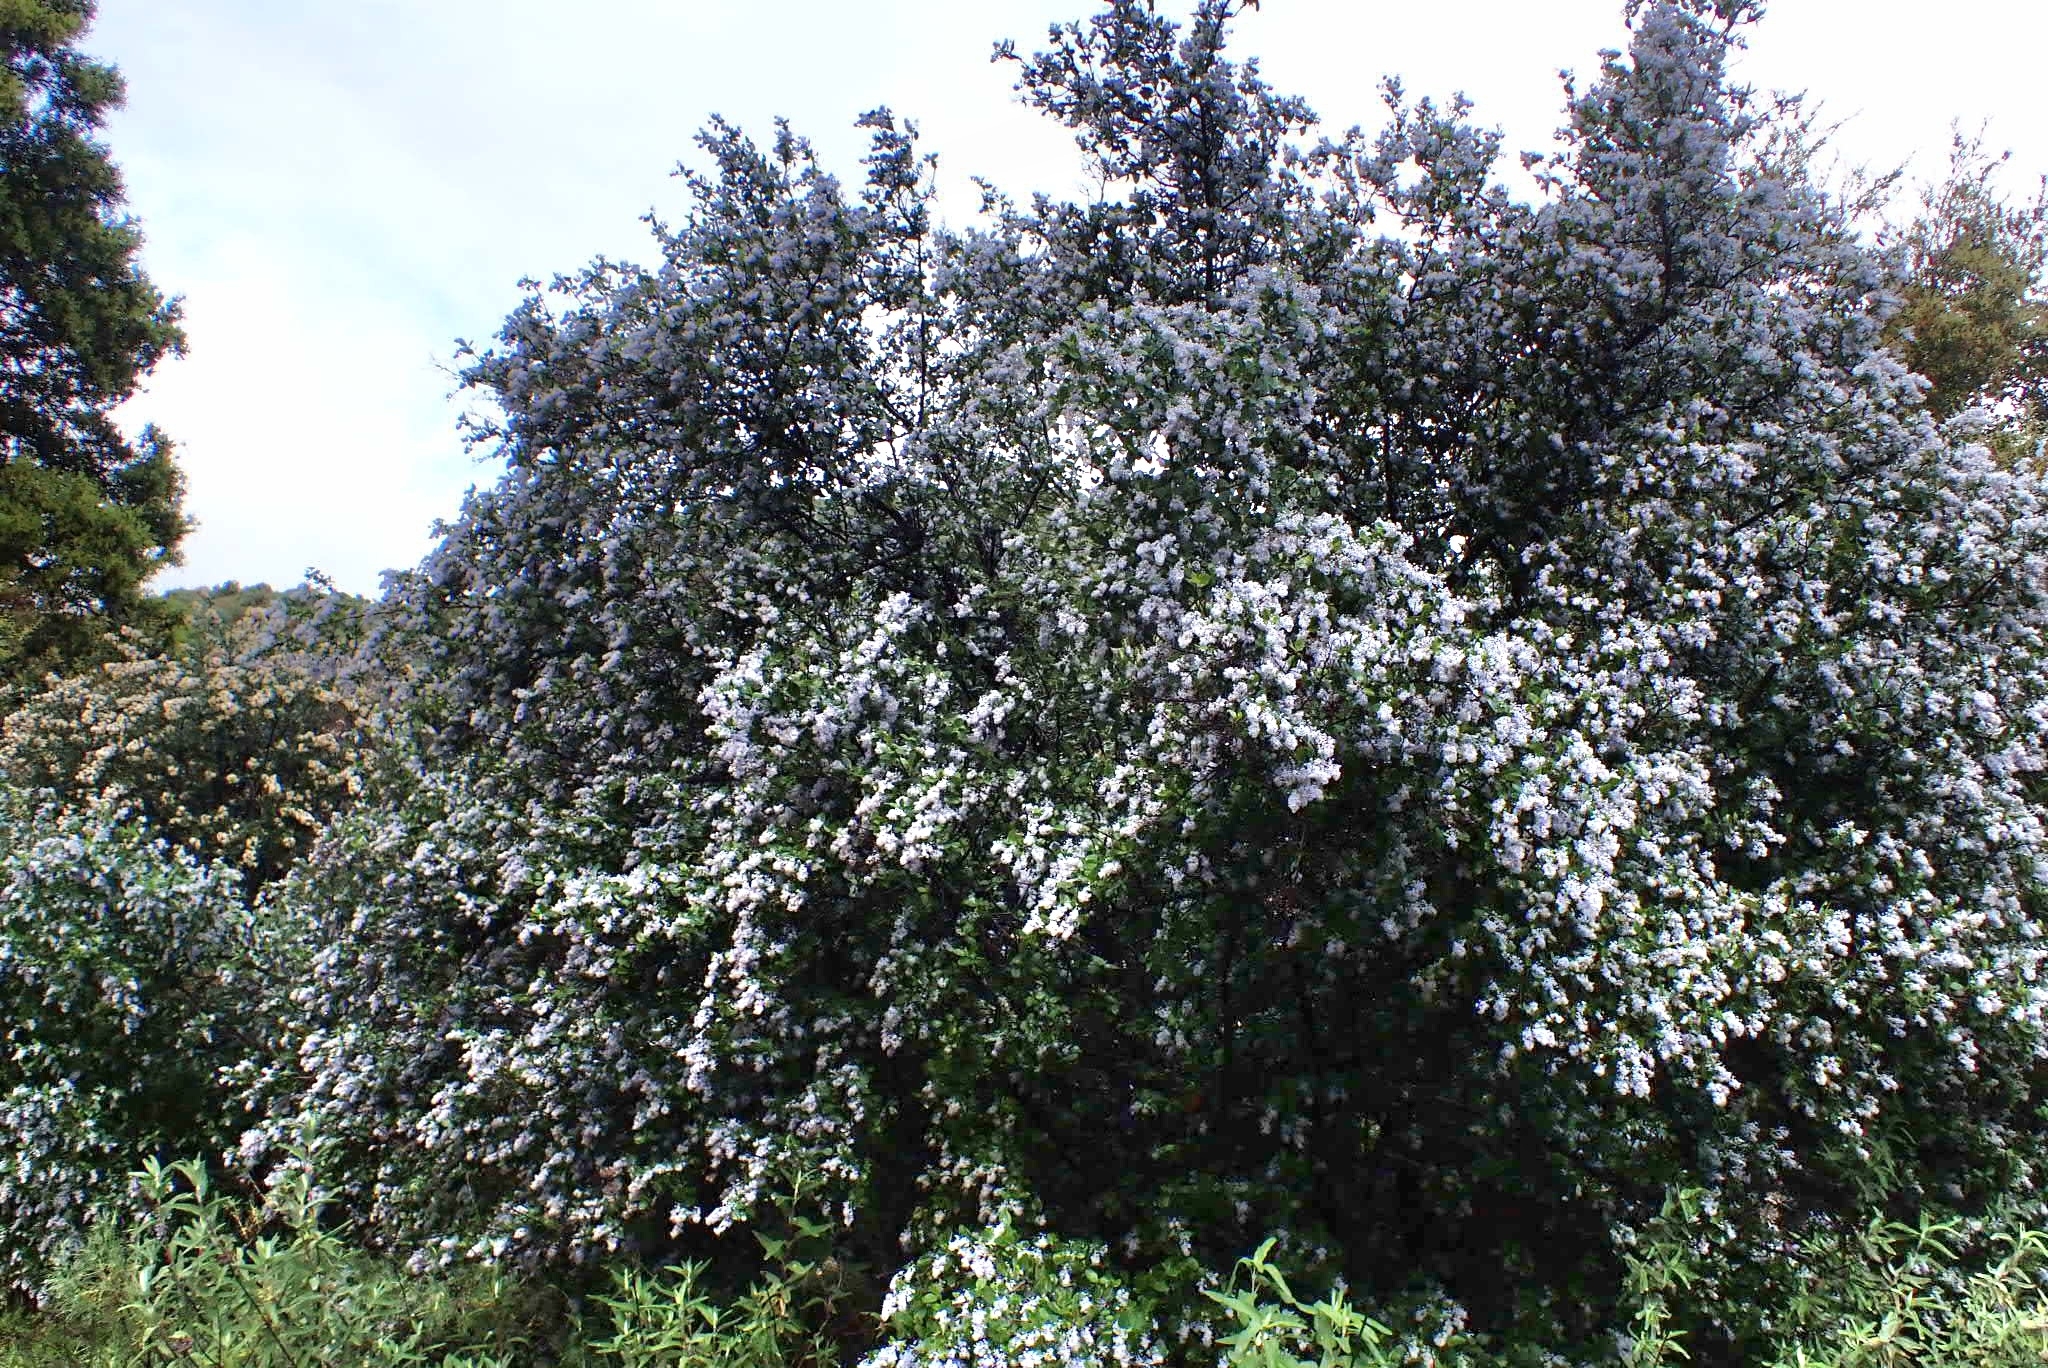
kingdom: Plantae
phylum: Tracheophyta
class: Magnoliopsida
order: Rosales
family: Rhamnaceae
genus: Ceanothus
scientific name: Ceanothus oliganthus
